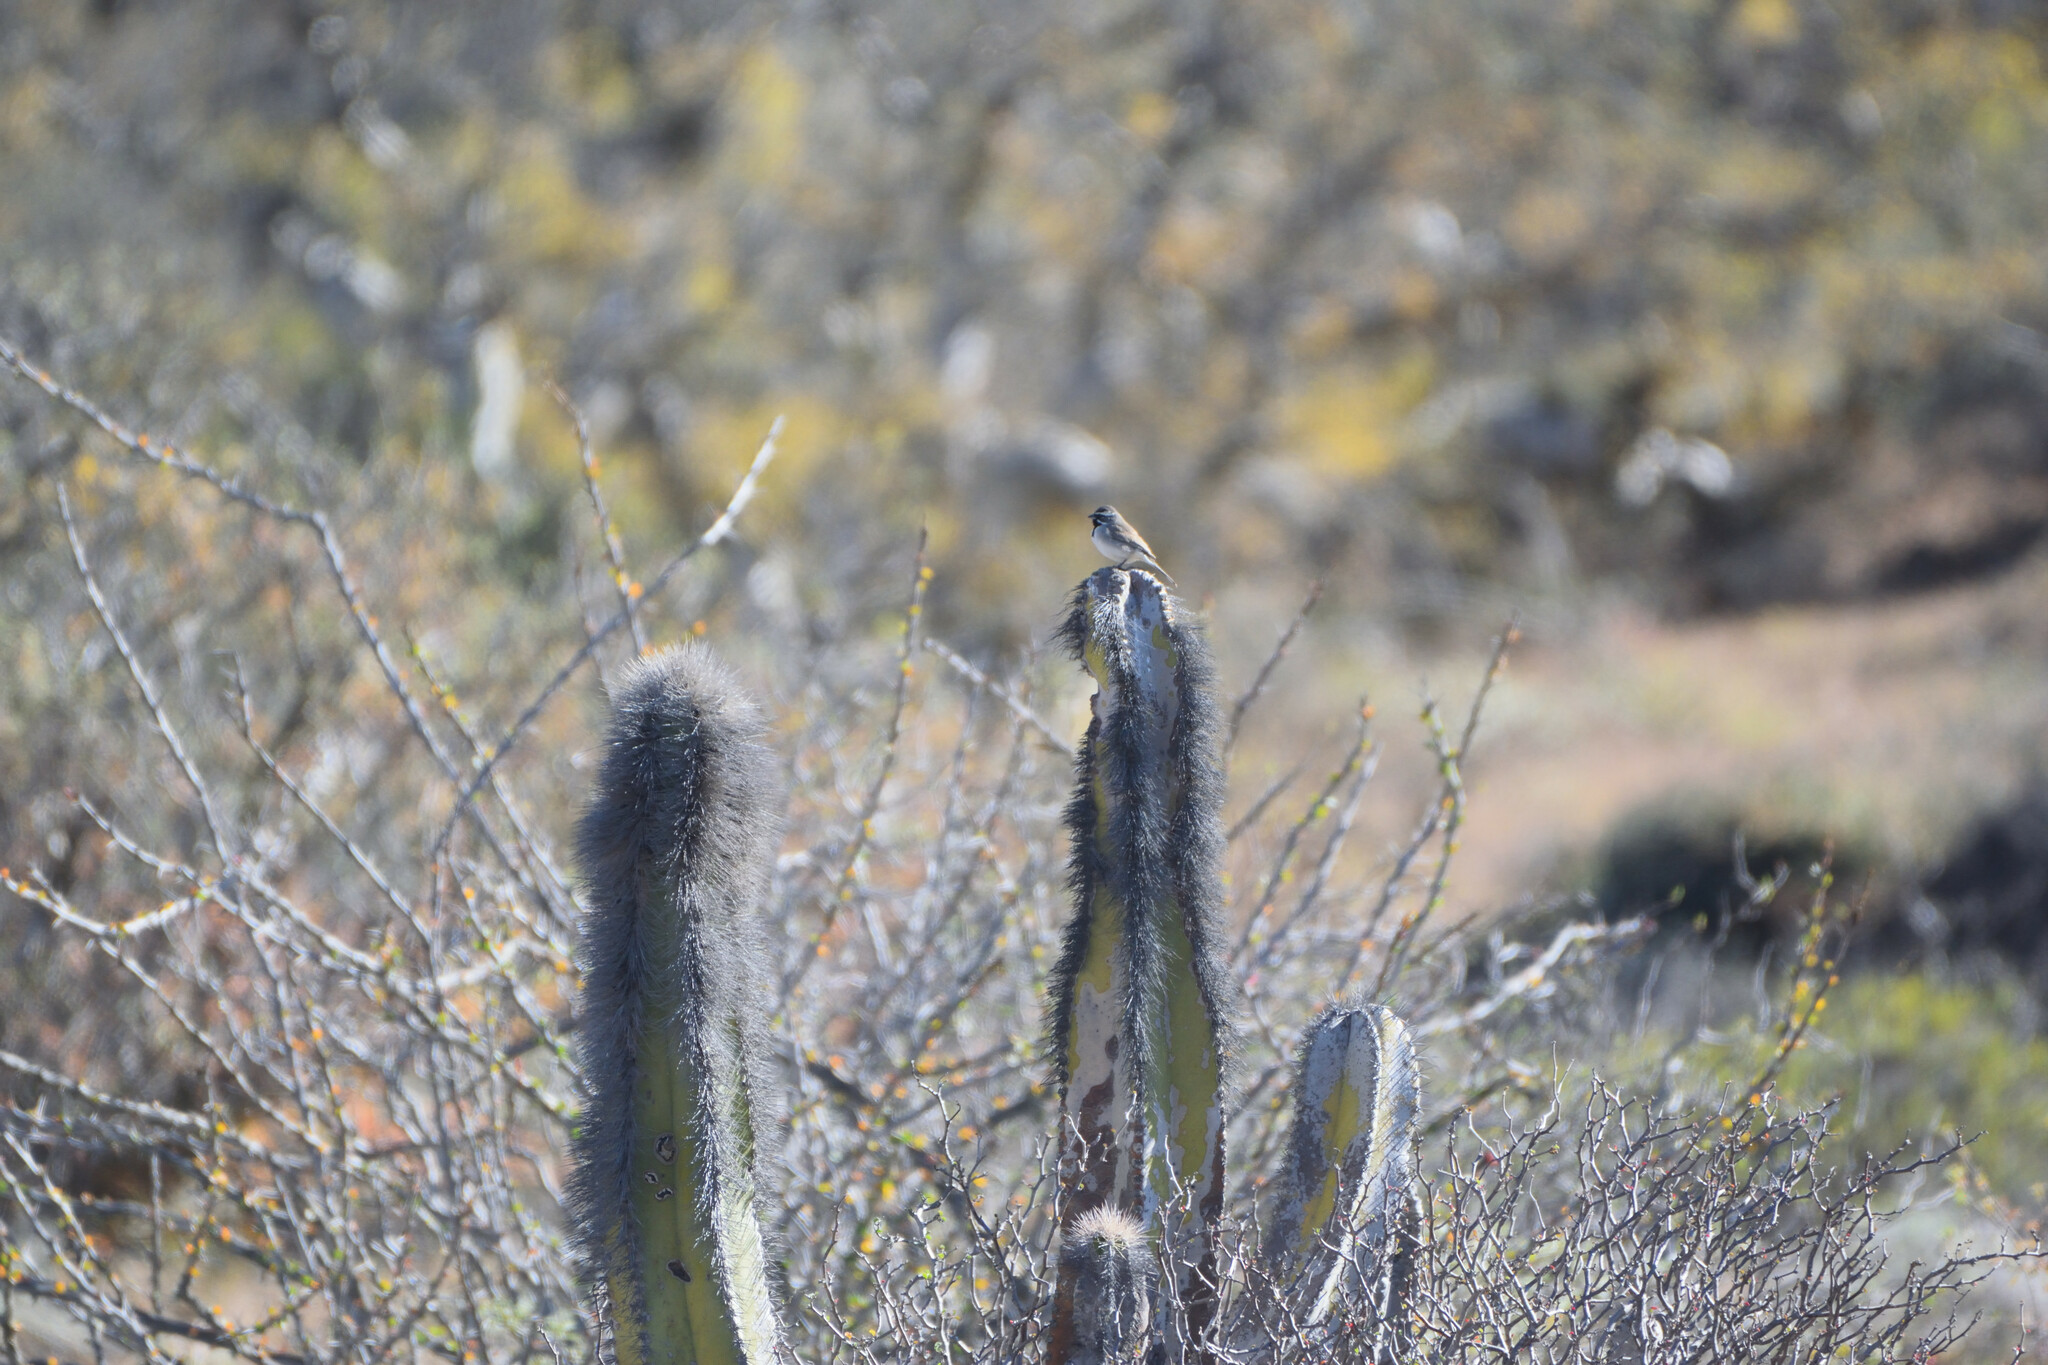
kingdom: Plantae
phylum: Tracheophyta
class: Magnoliopsida
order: Caryophyllales
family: Cactaceae
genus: Pachycereus
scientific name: Pachycereus schottii
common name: Senita cactus
